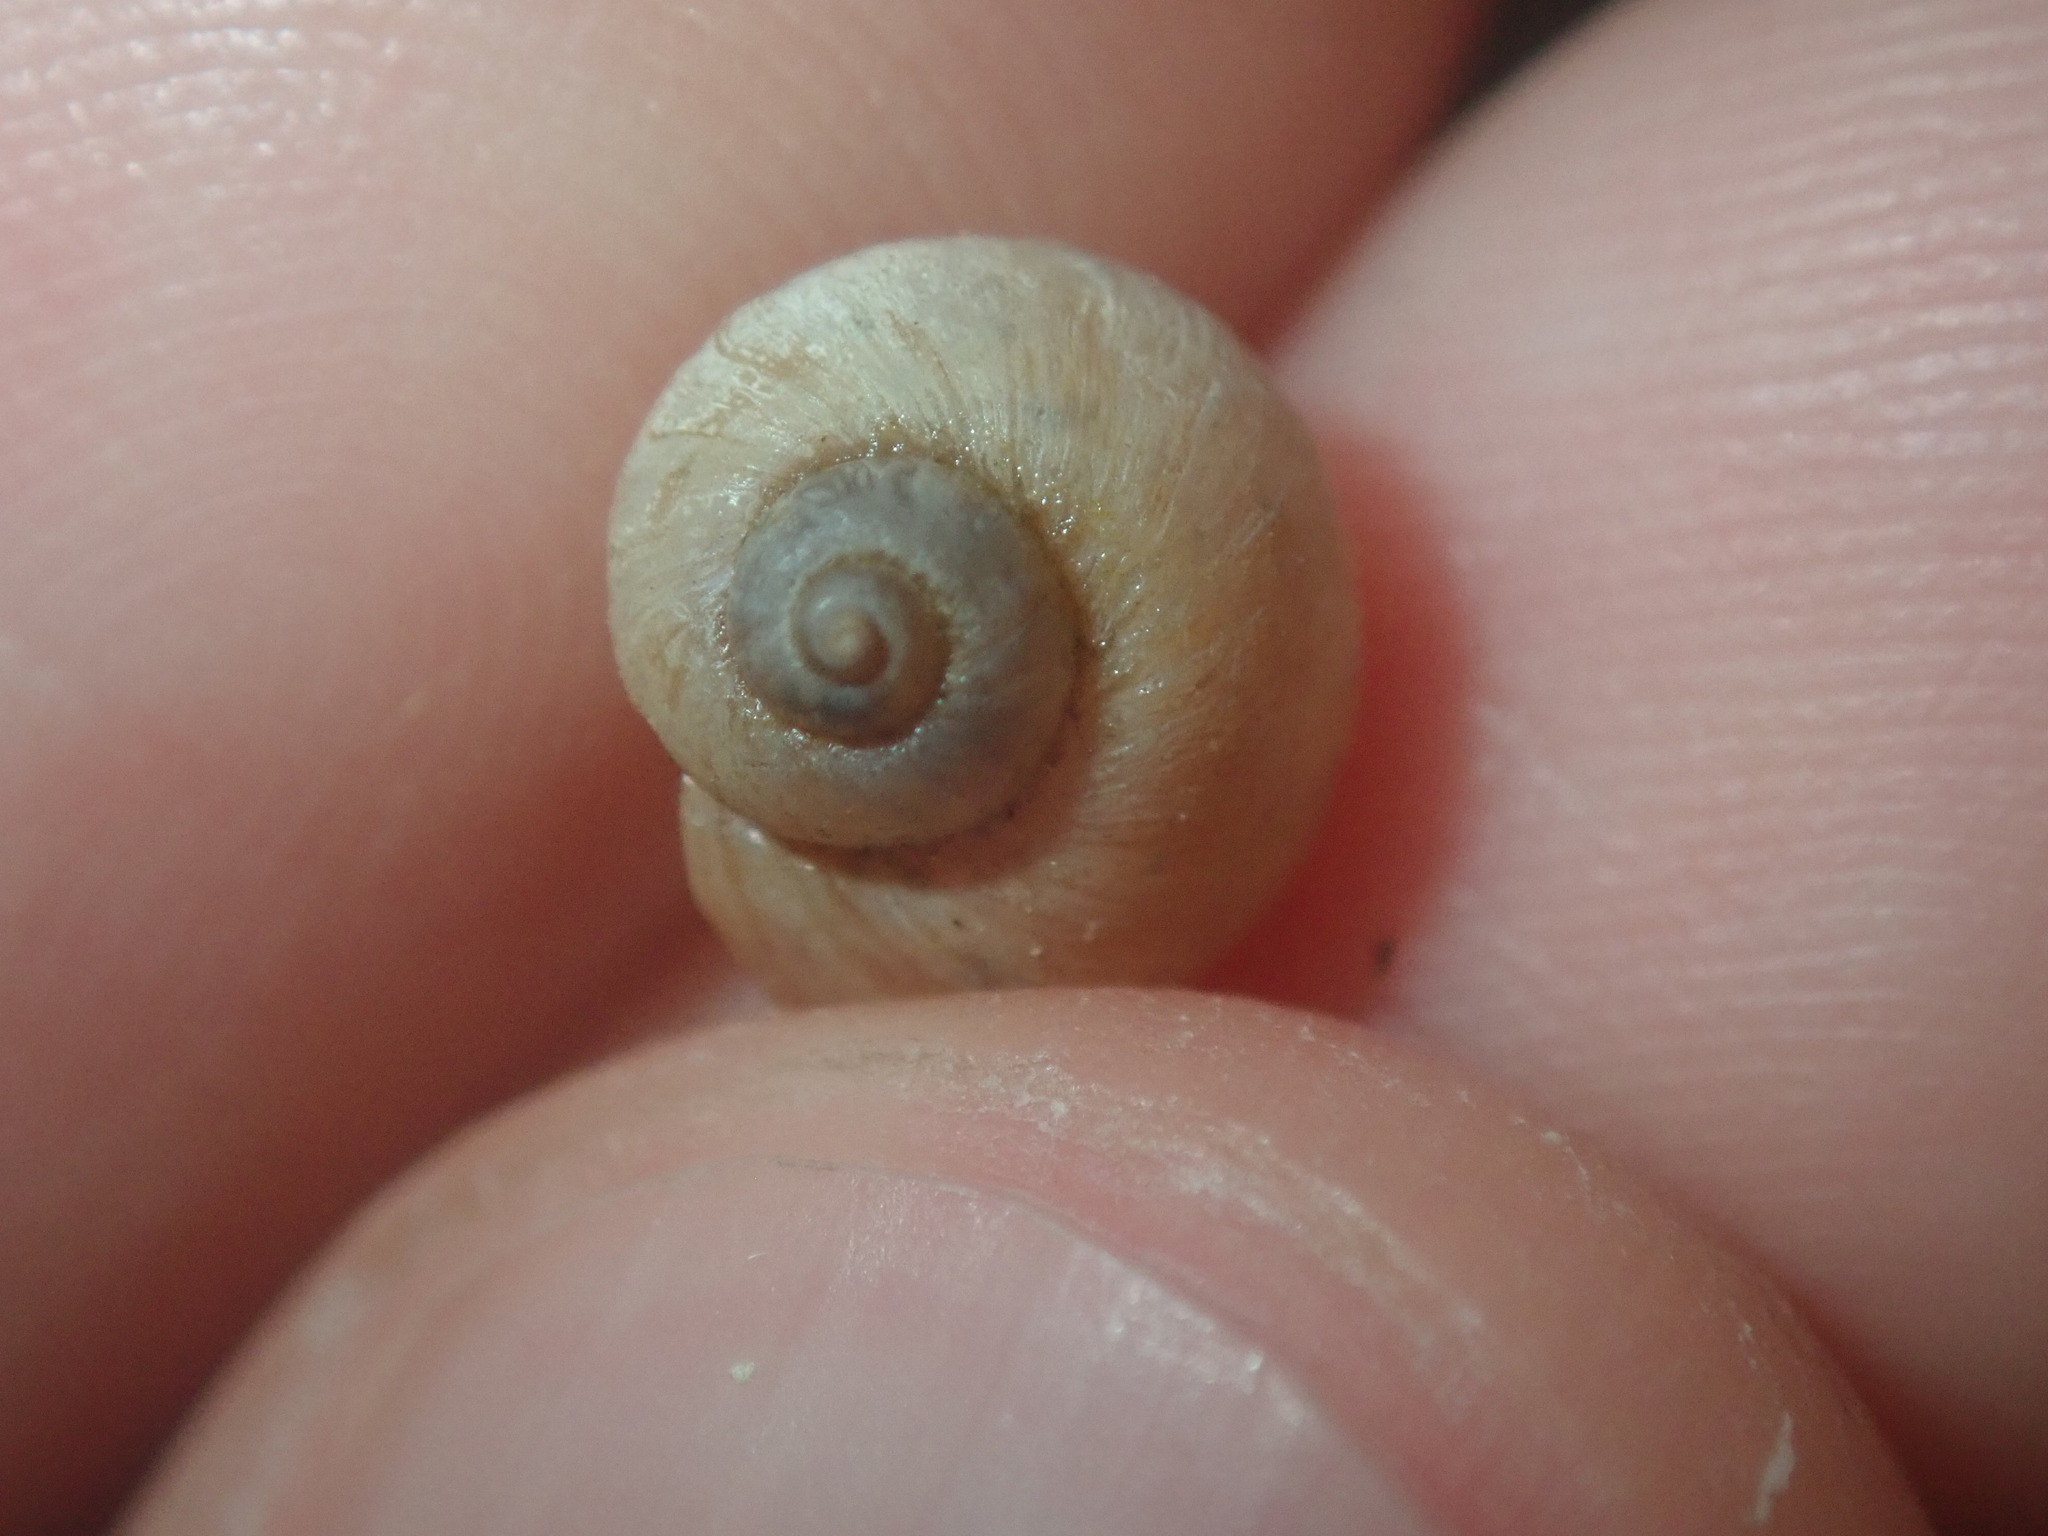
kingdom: Animalia
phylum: Mollusca
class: Gastropoda
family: Amphibolidae
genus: Salinator
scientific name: Salinator tectus
